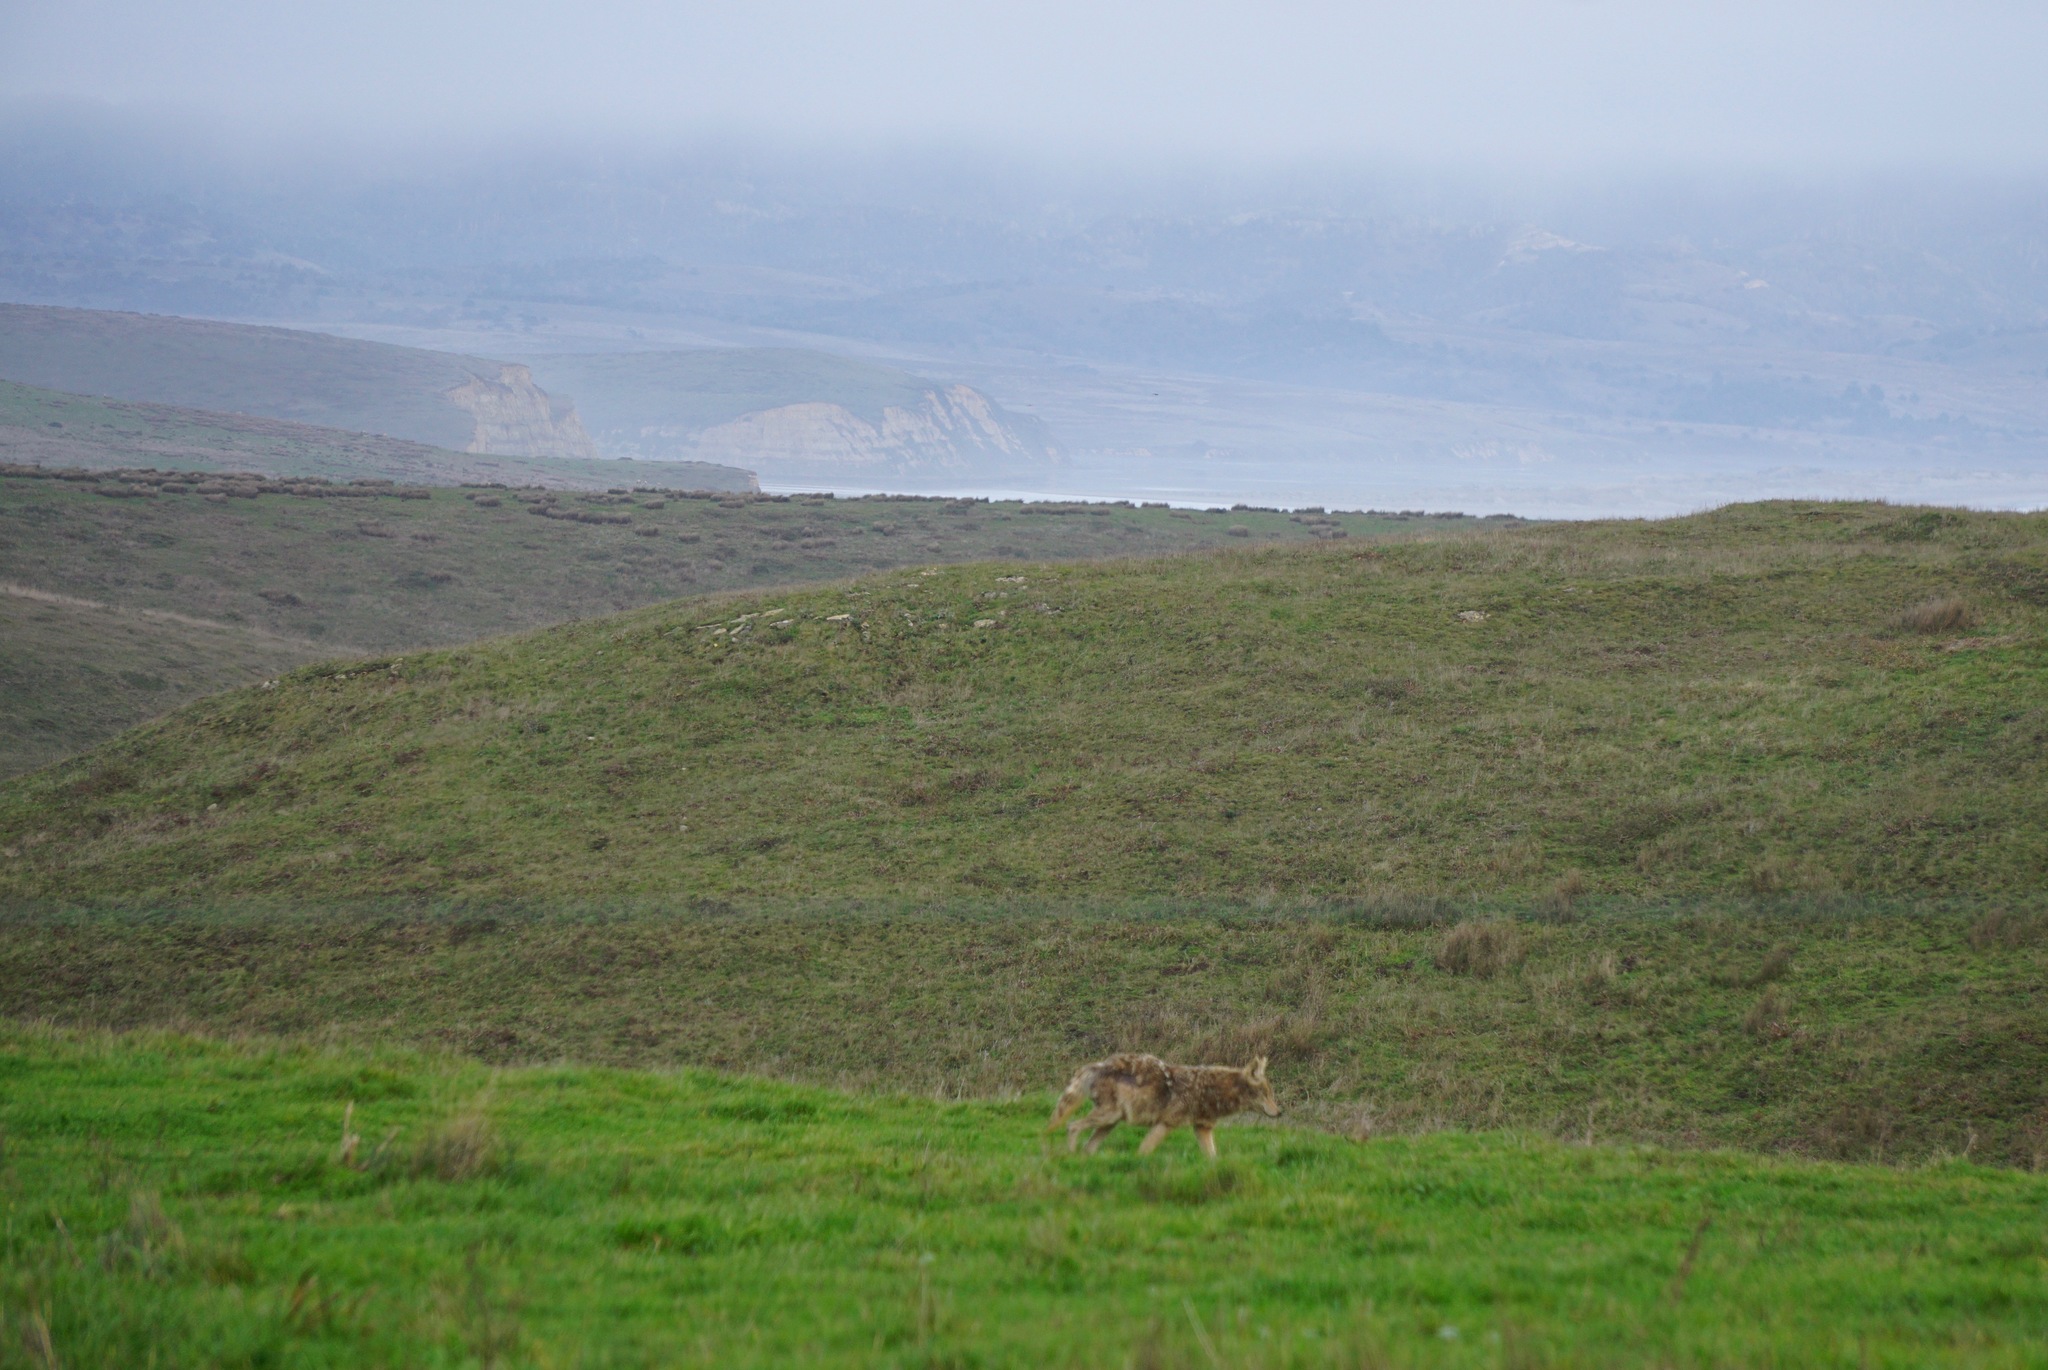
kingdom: Animalia
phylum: Chordata
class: Mammalia
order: Carnivora
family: Canidae
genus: Canis
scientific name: Canis latrans
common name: Coyote
